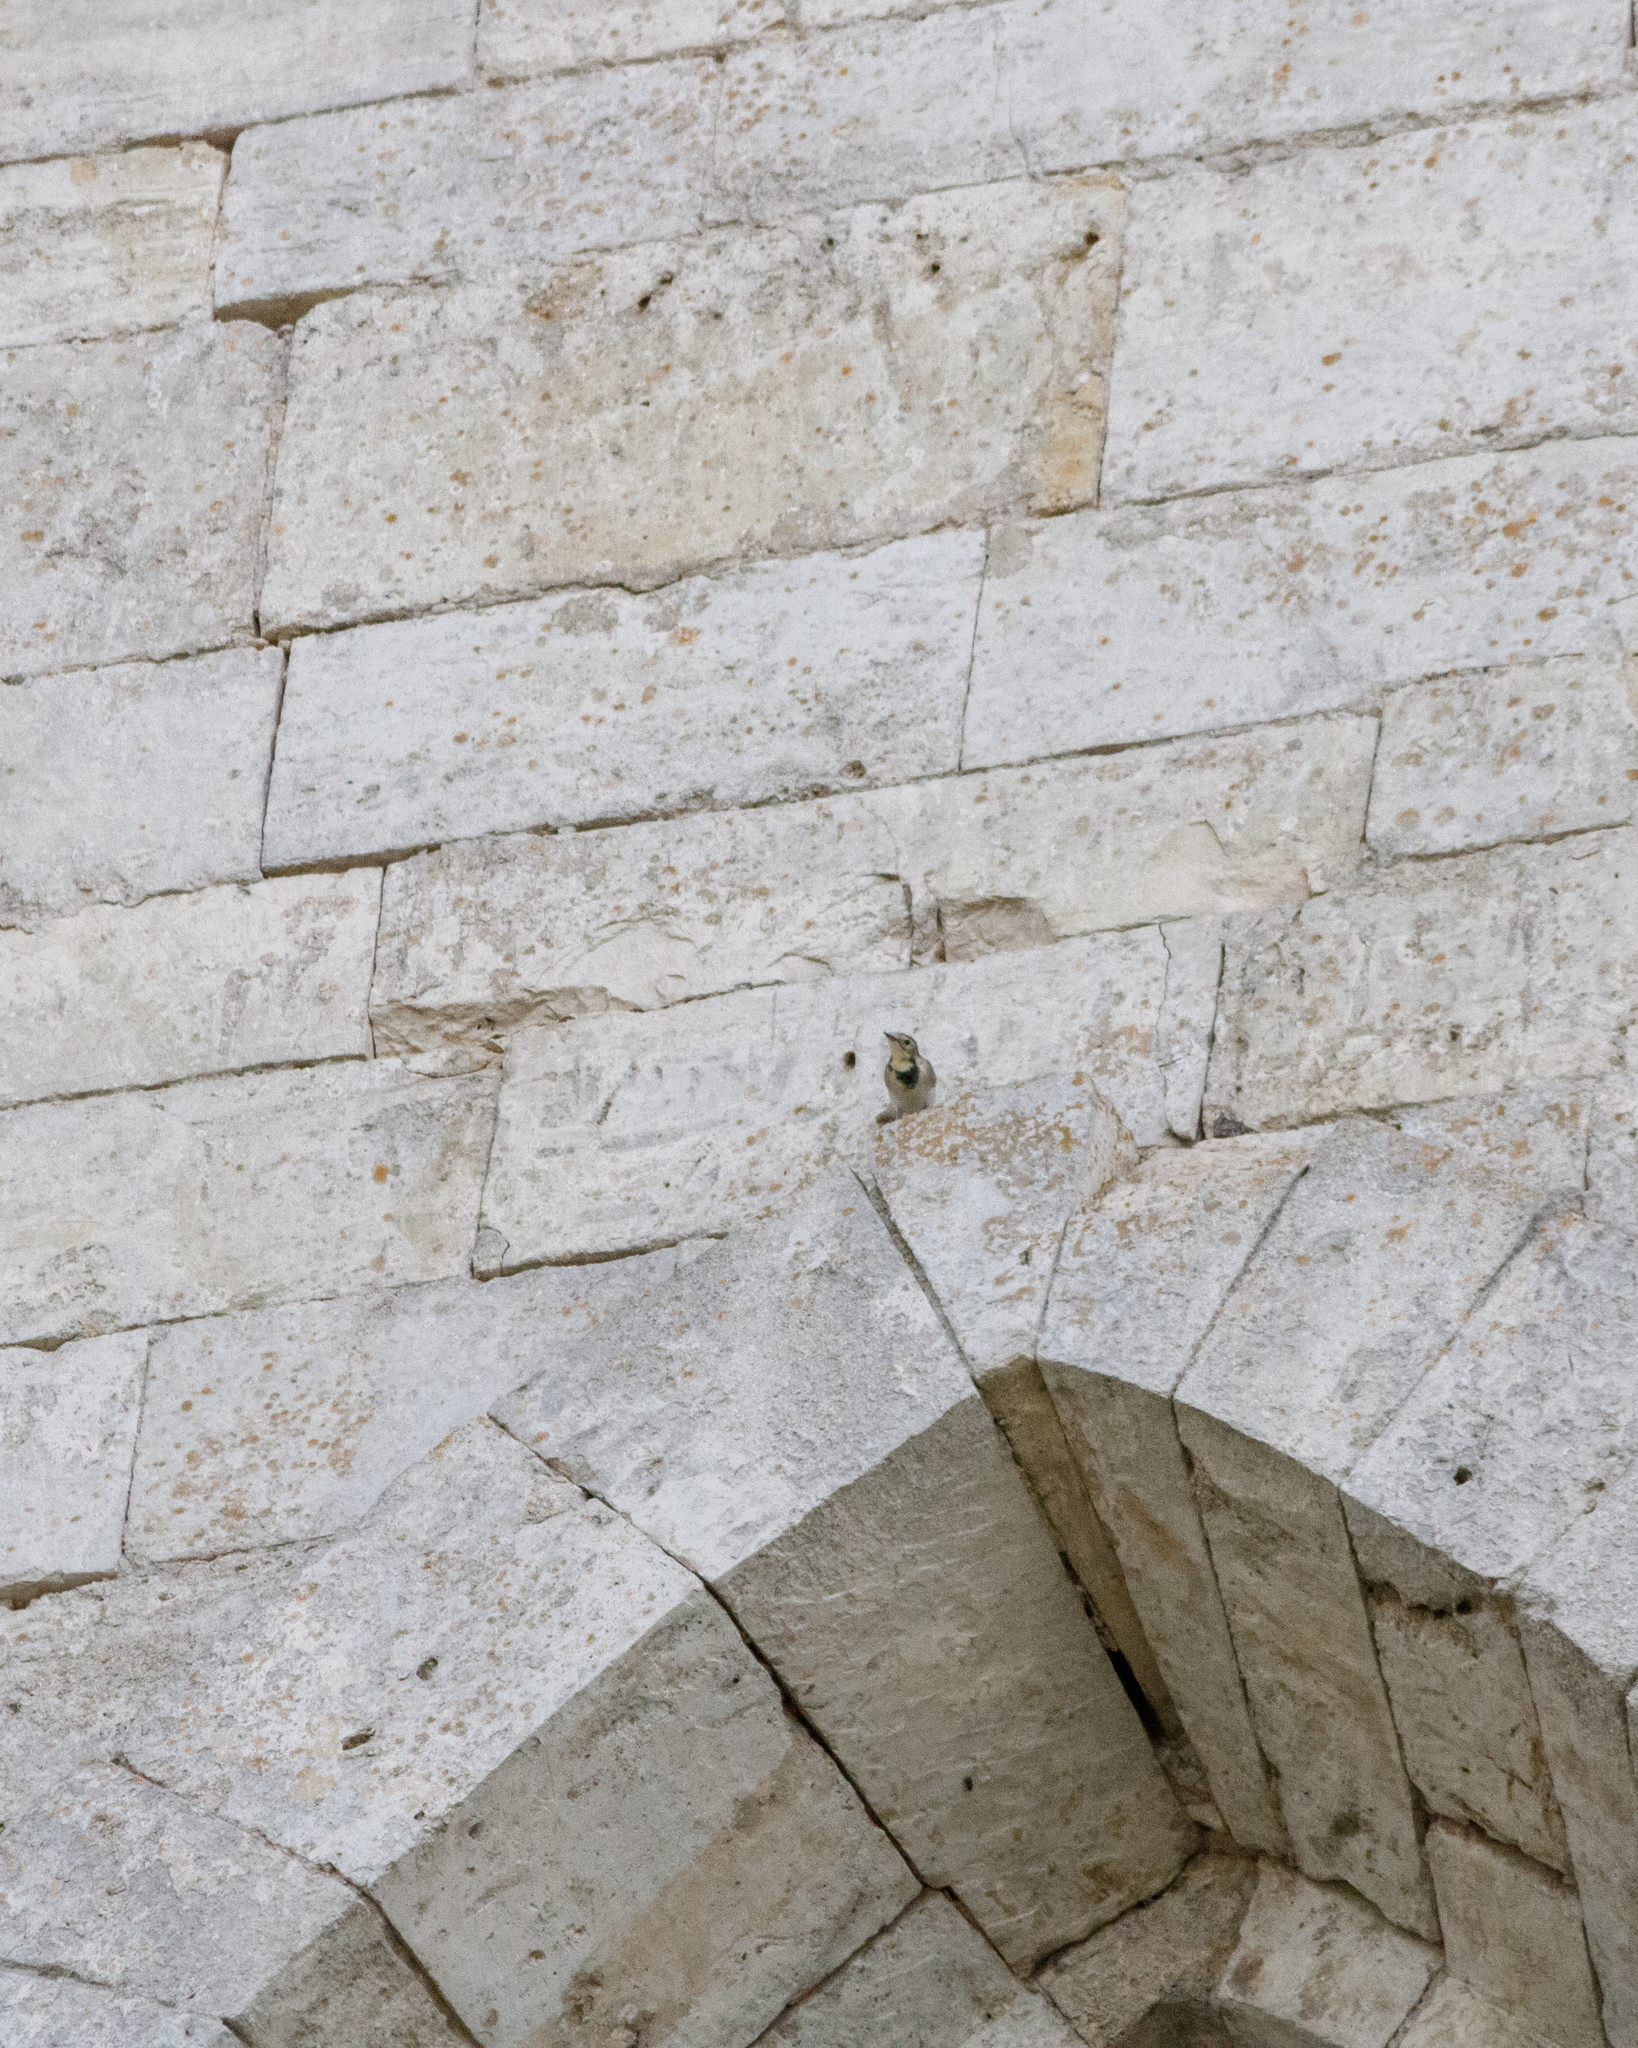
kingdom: Animalia
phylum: Chordata
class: Aves
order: Passeriformes
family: Motacillidae
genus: Motacilla
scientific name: Motacilla alba
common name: White wagtail
